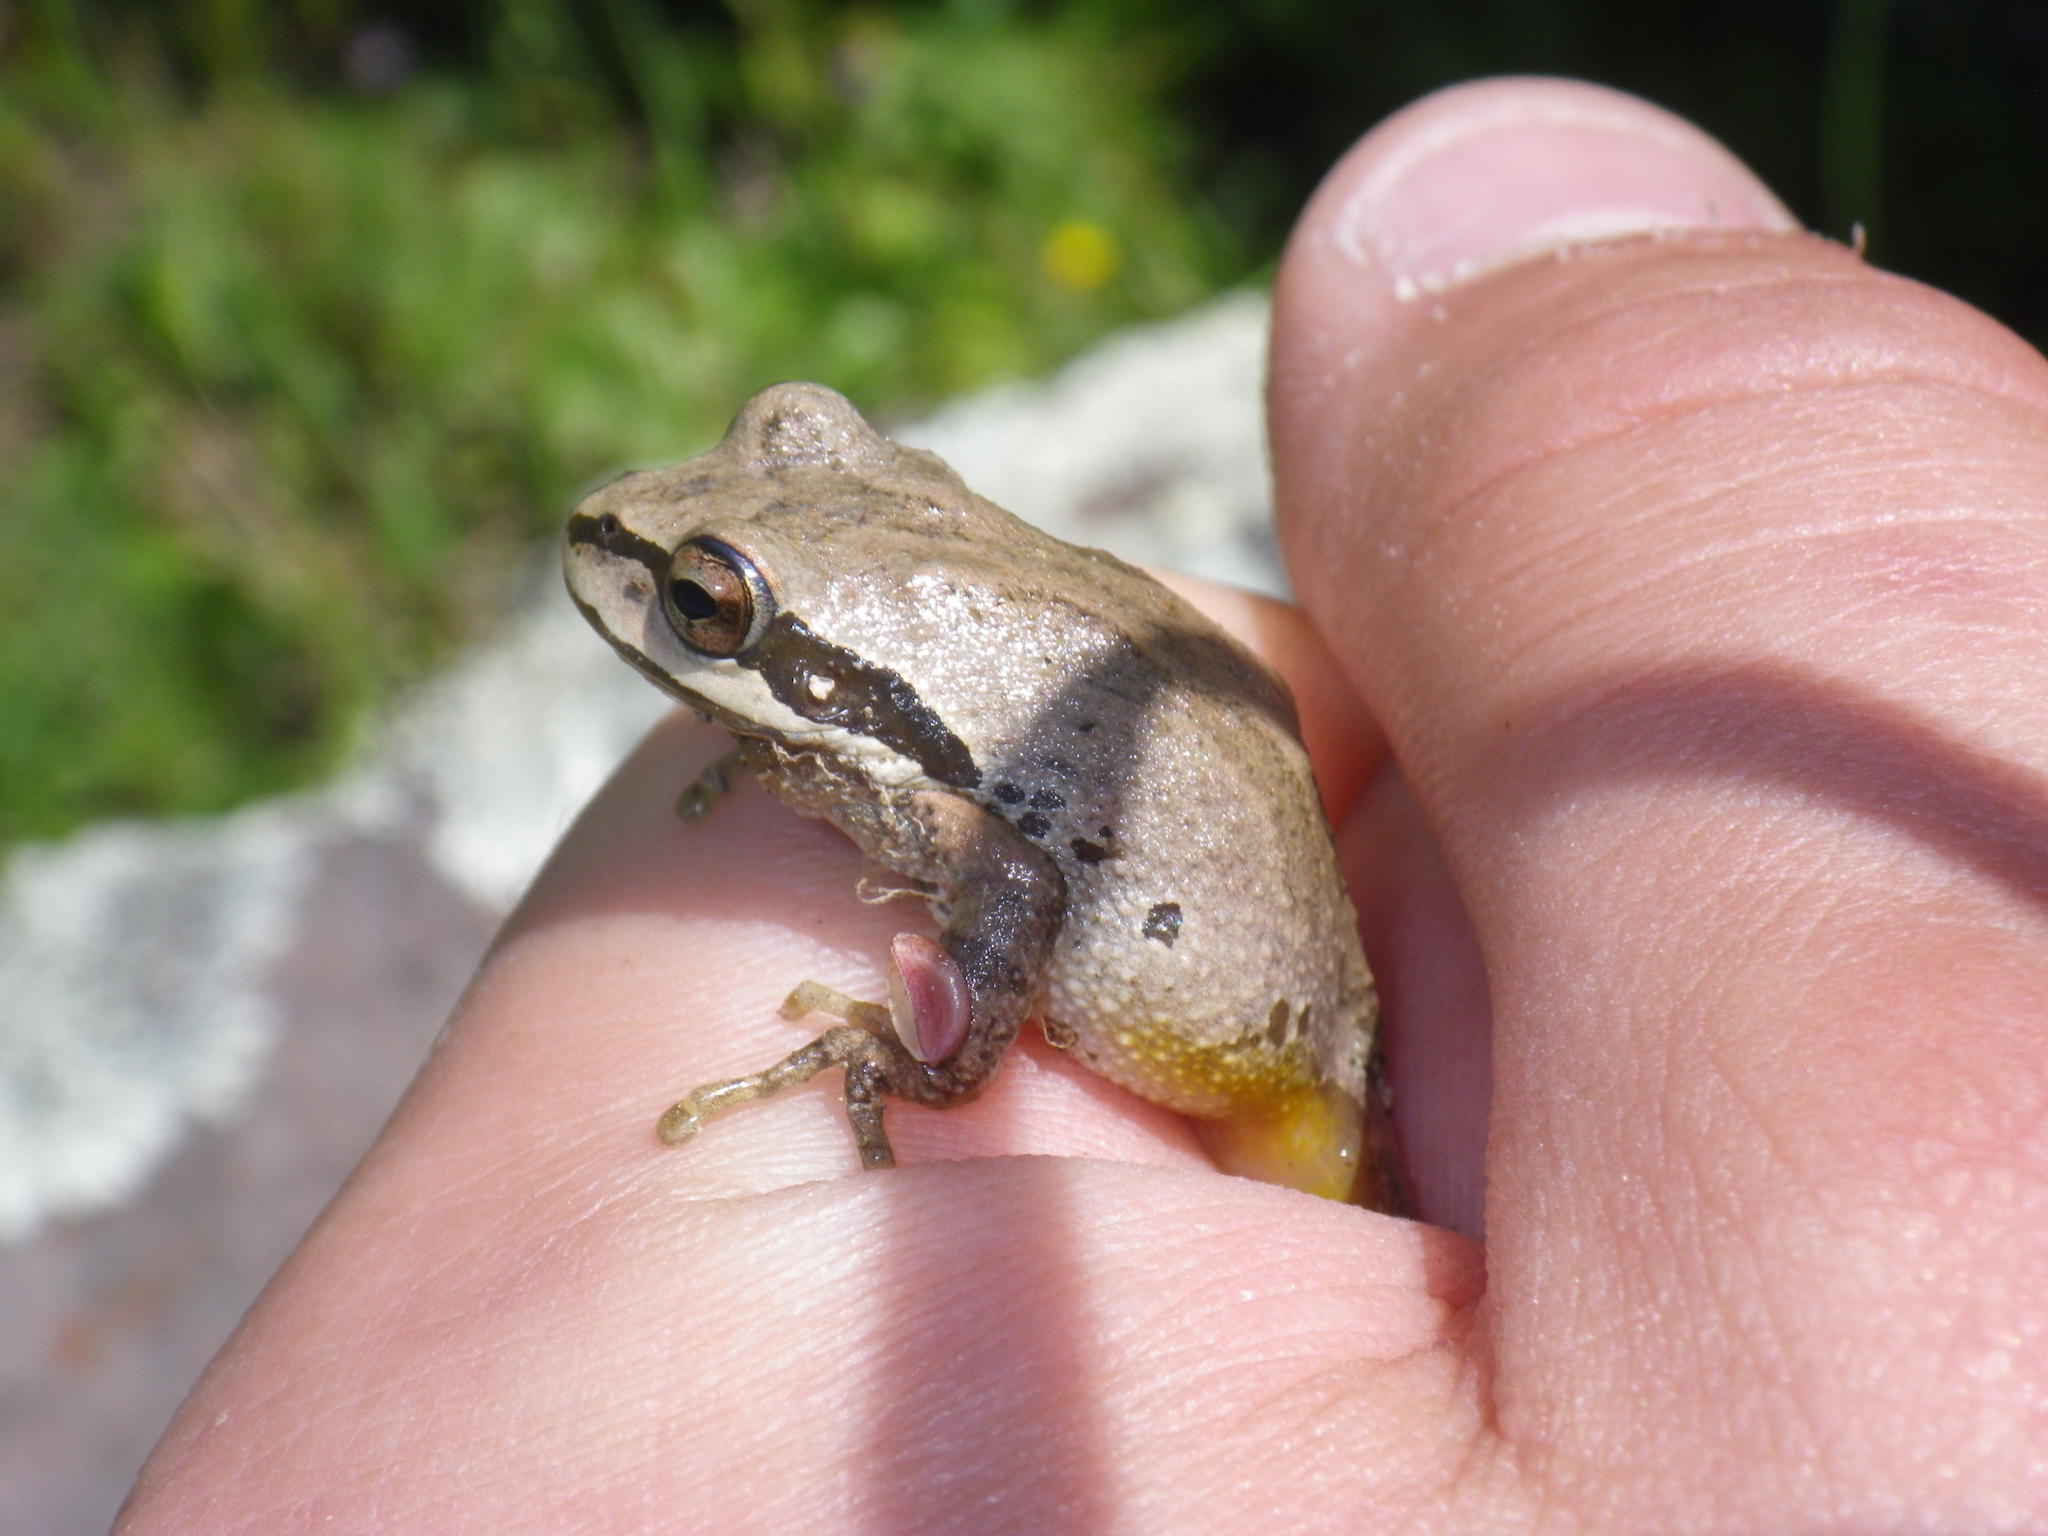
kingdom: Animalia
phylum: Chordata
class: Amphibia
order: Anura
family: Hylidae
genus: Pseudacris
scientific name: Pseudacris regilla
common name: Pacific chorus frog
